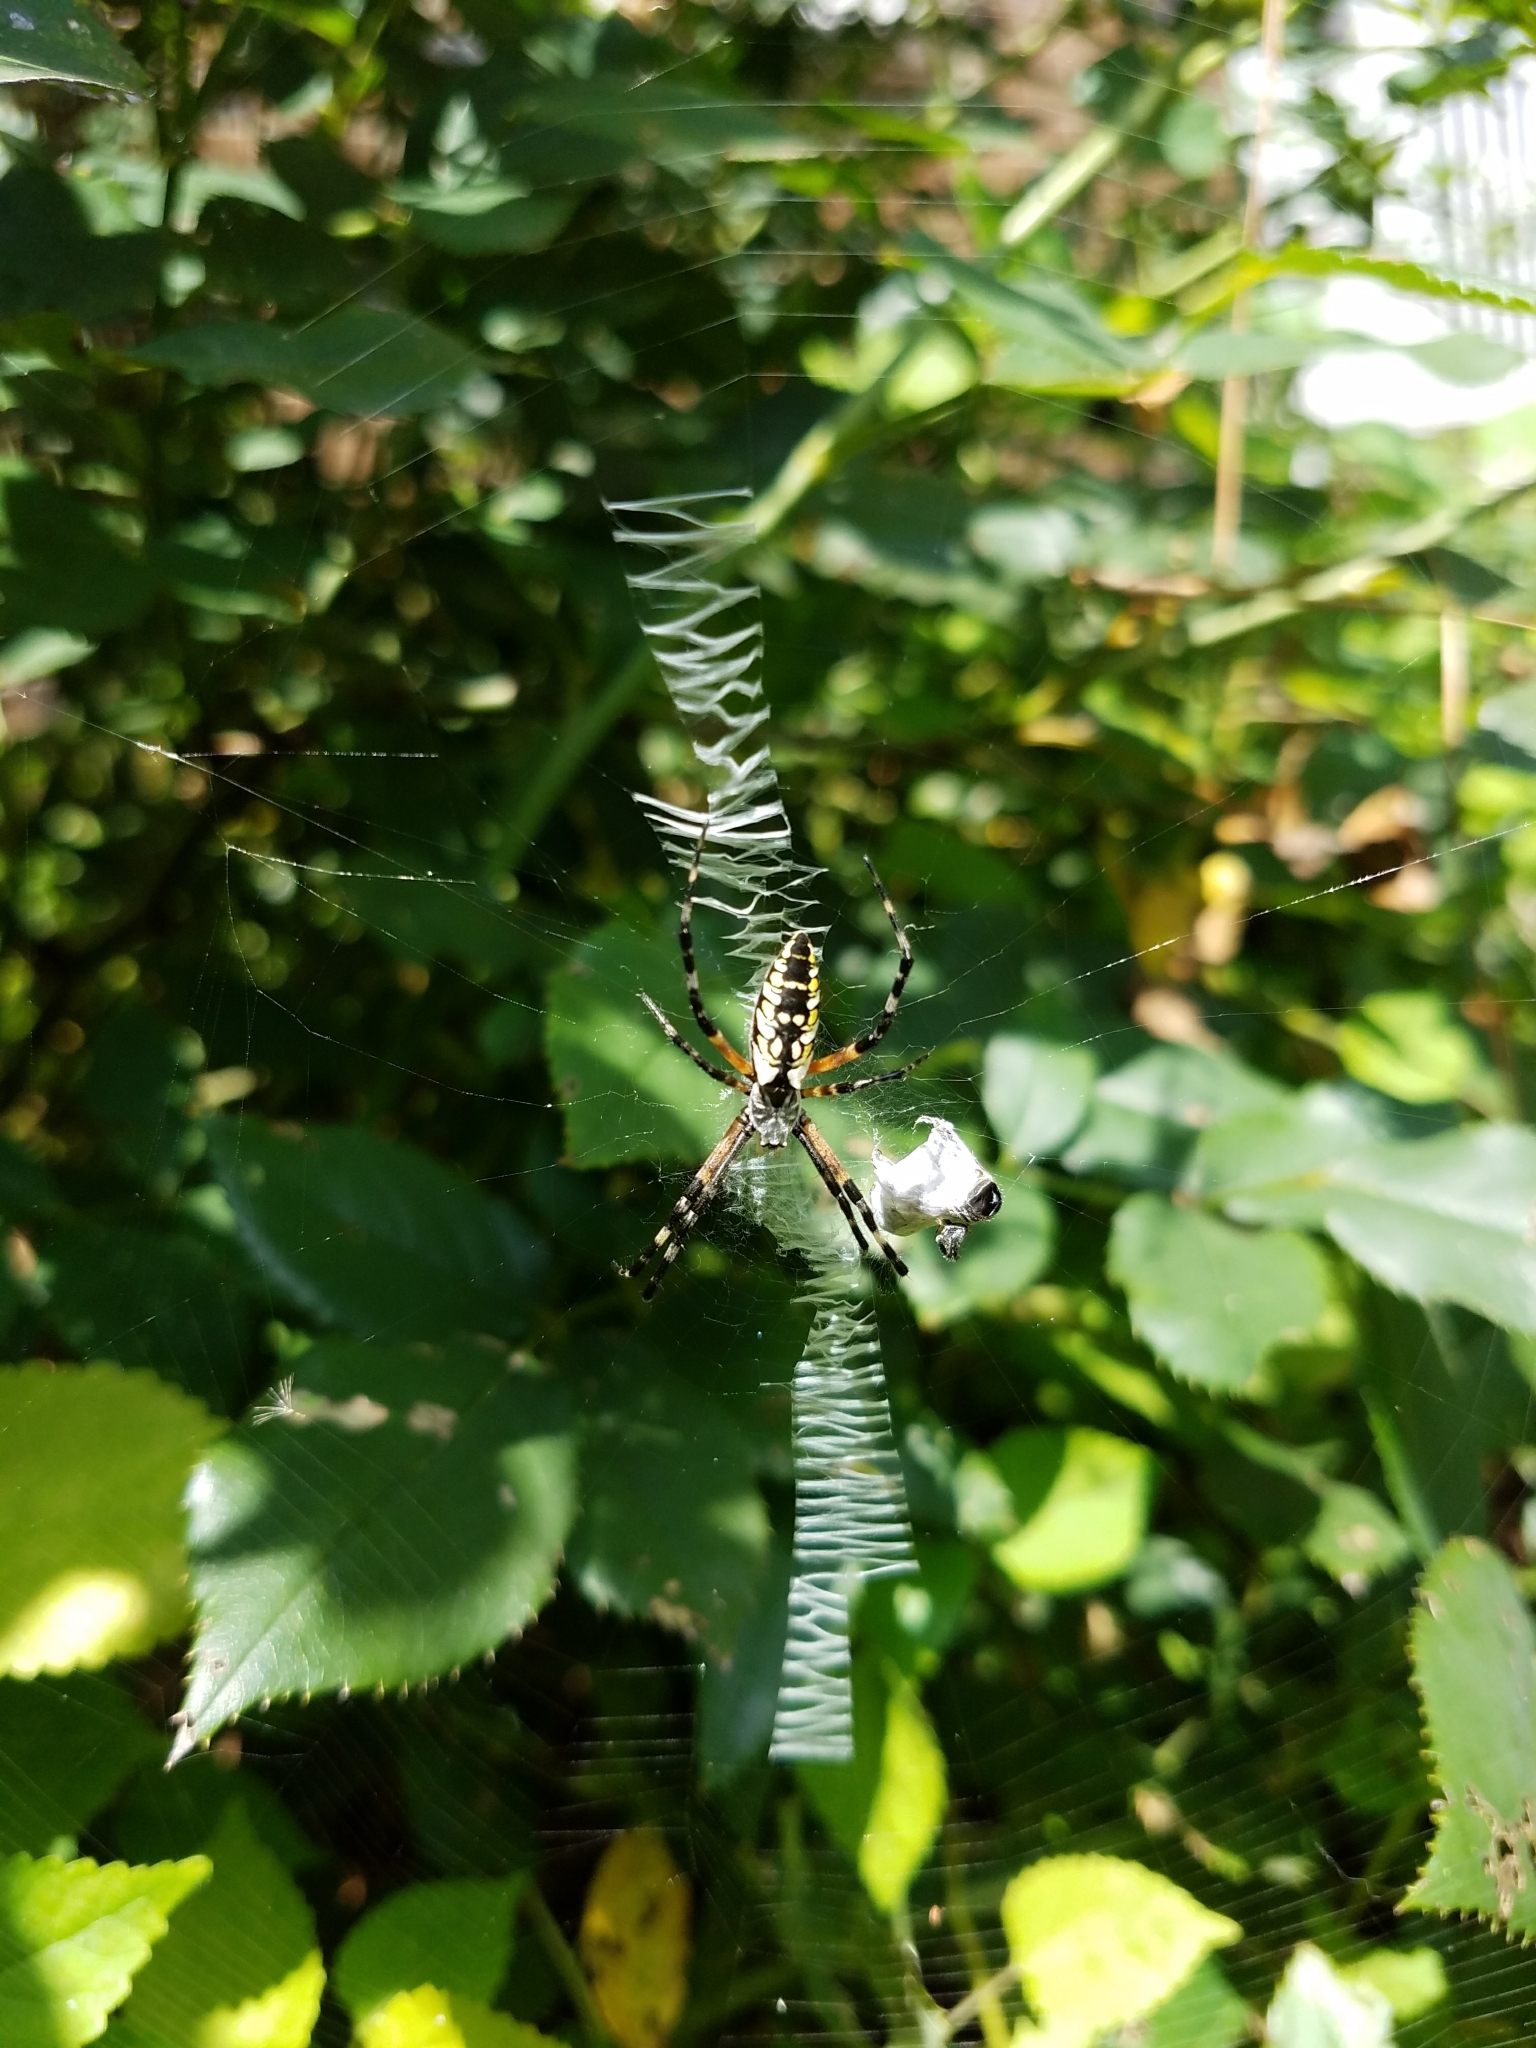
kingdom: Animalia
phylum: Arthropoda
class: Arachnida
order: Araneae
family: Araneidae
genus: Argiope
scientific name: Argiope aurantia
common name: Orb weavers
